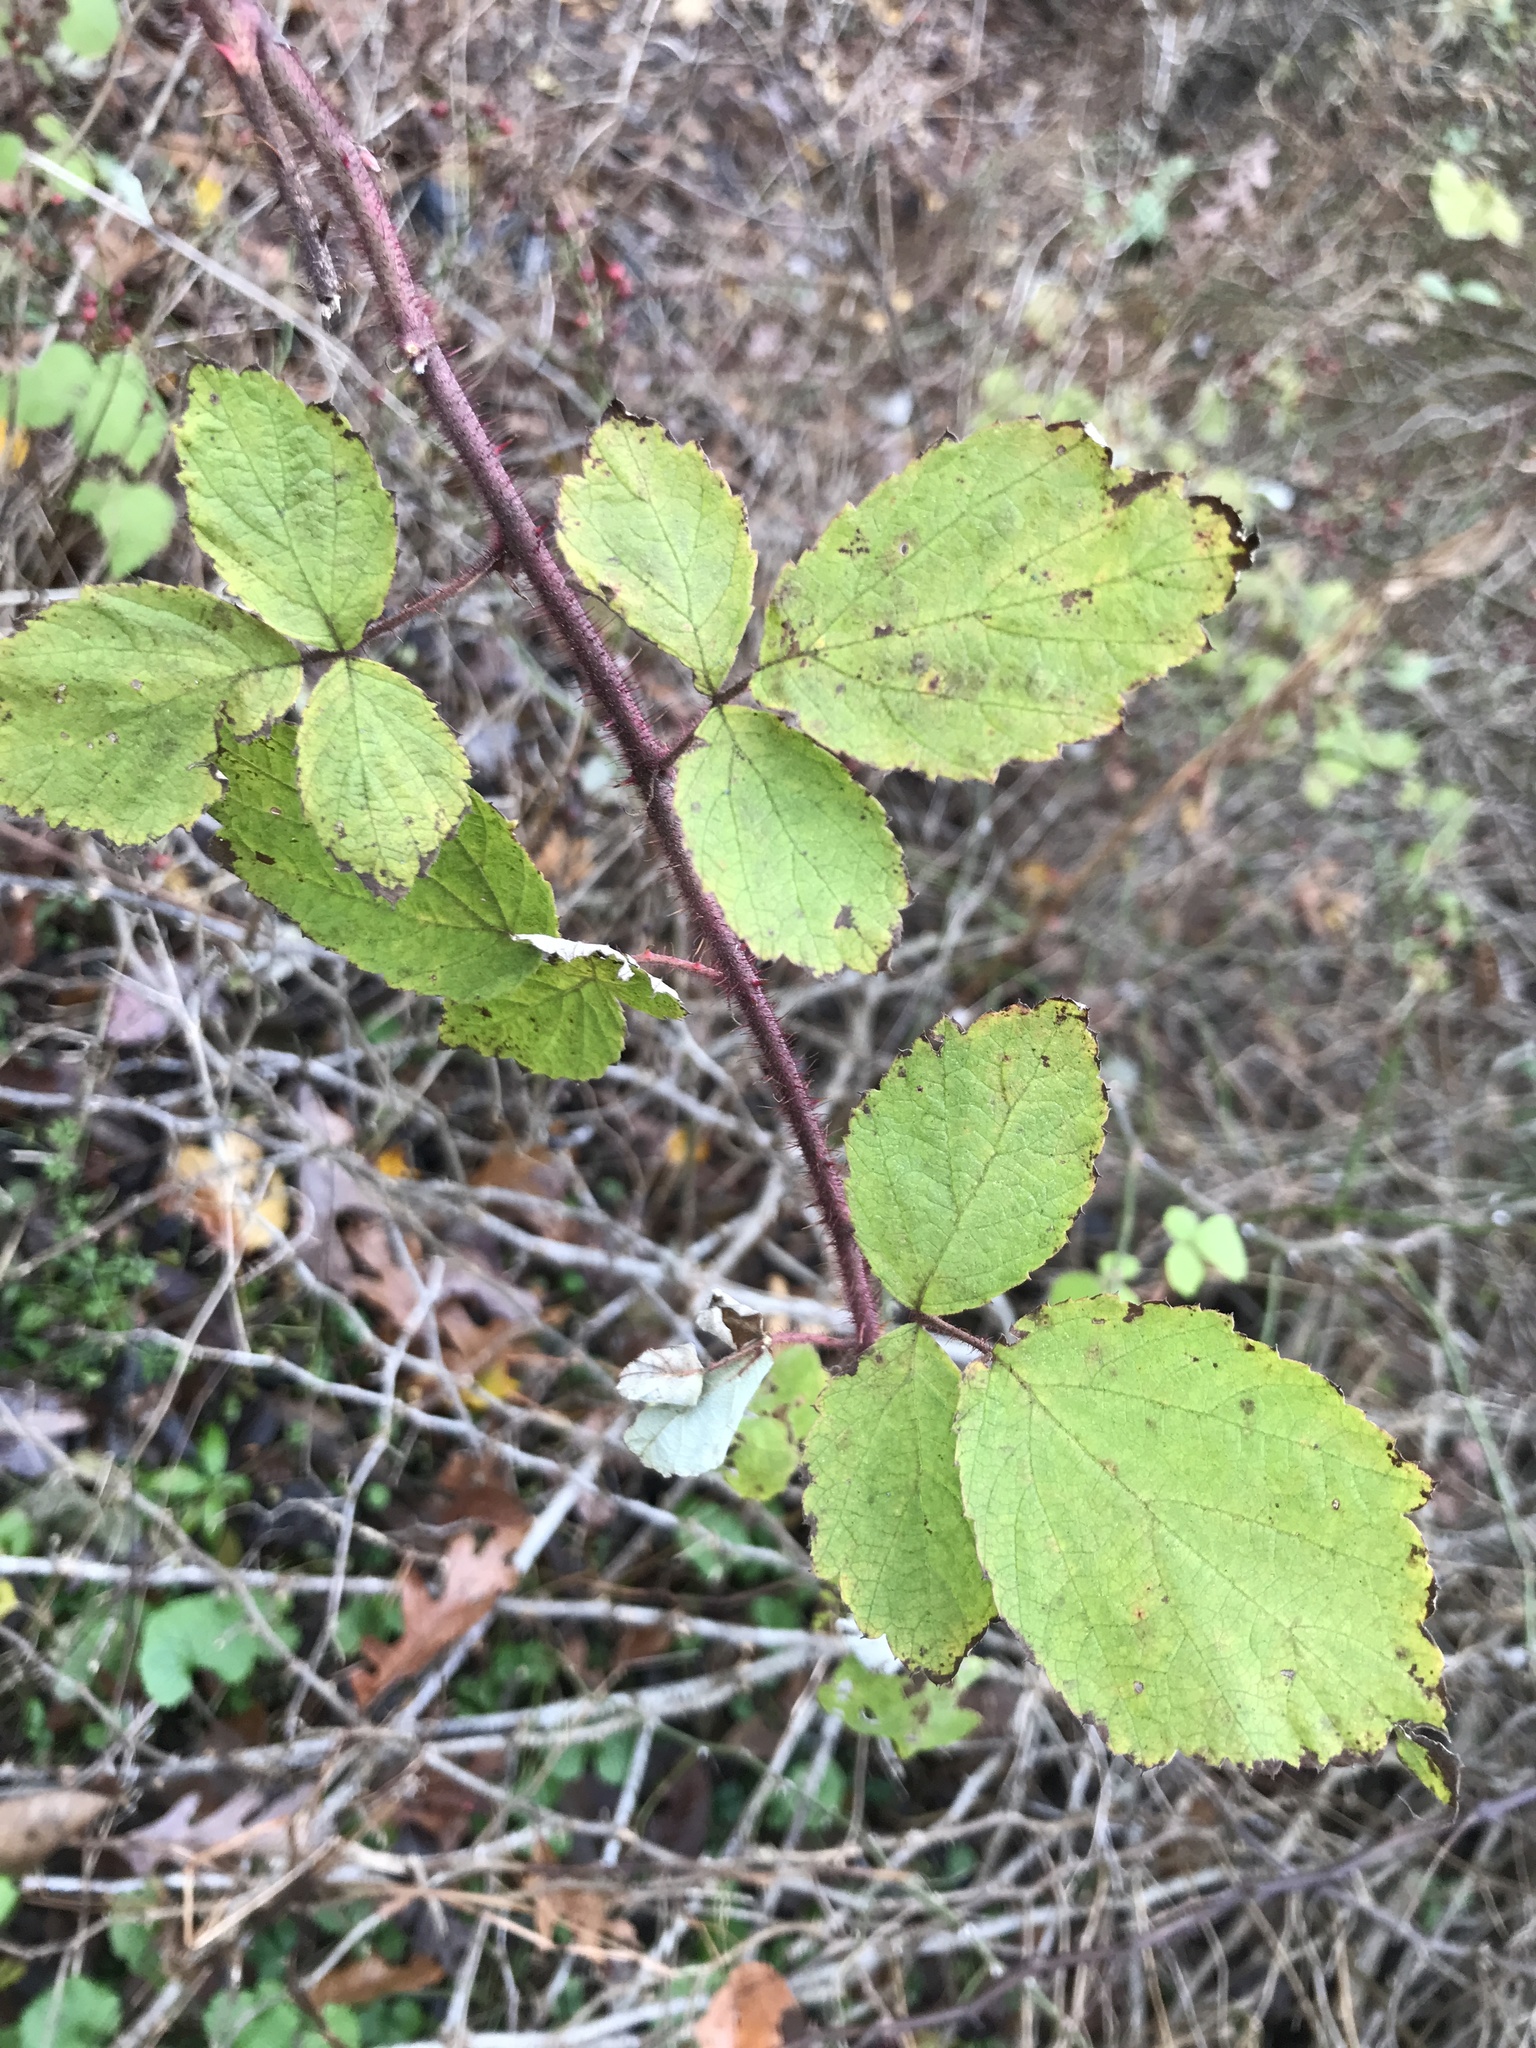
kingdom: Plantae
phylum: Tracheophyta
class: Magnoliopsida
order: Rosales
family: Rosaceae
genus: Rubus
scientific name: Rubus phoenicolasius
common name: Japanese wineberry
